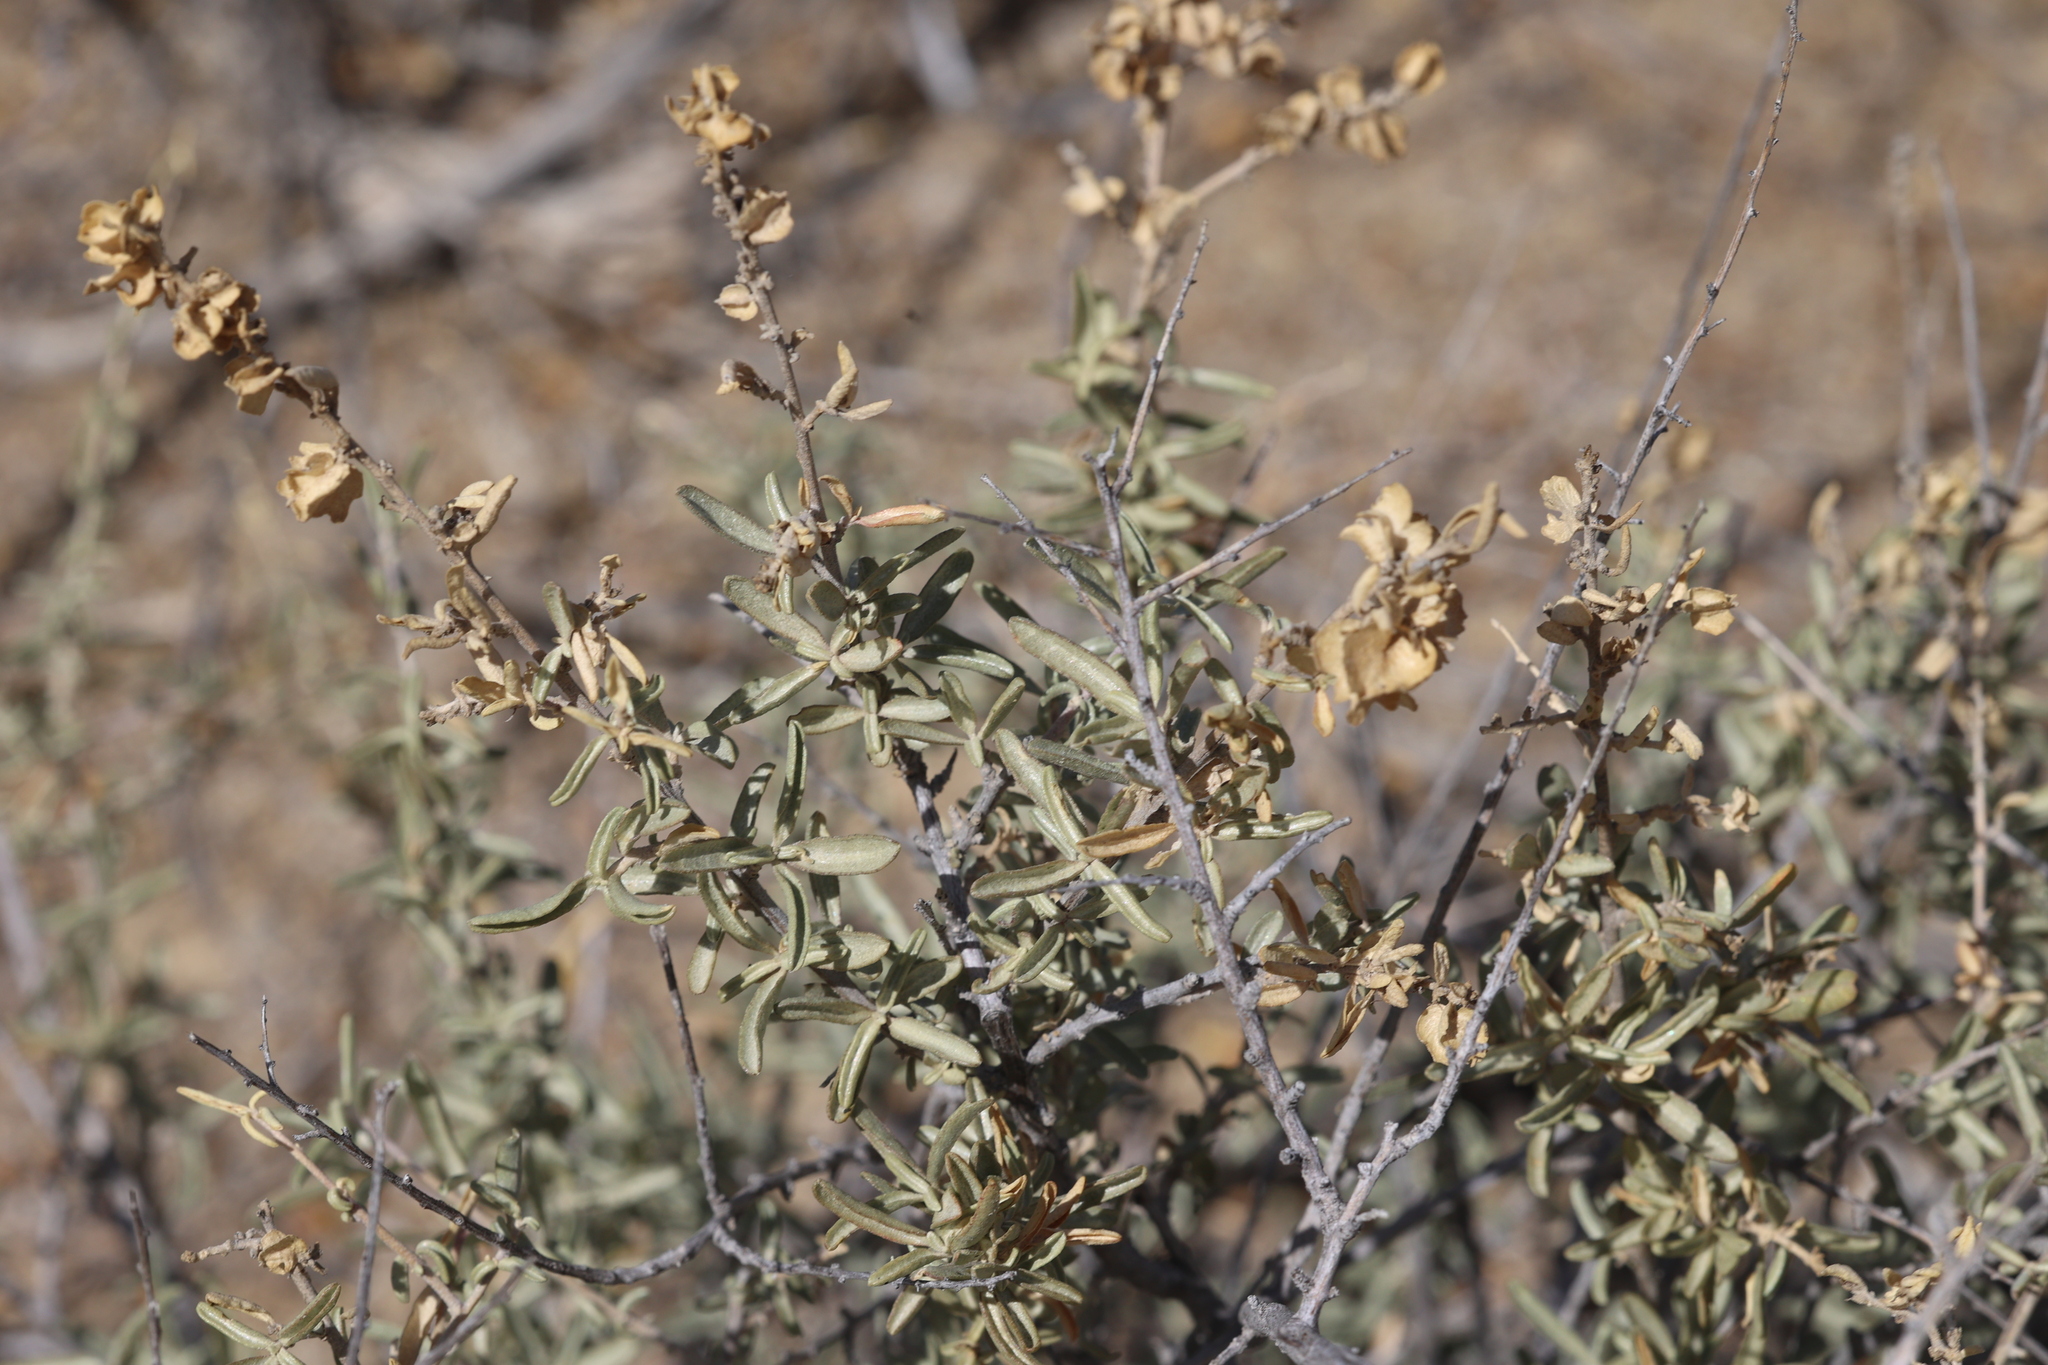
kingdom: Plantae
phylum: Tracheophyta
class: Magnoliopsida
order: Caryophyllales
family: Amaranthaceae
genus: Atriplex
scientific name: Atriplex canescens
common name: Four-wing saltbush
